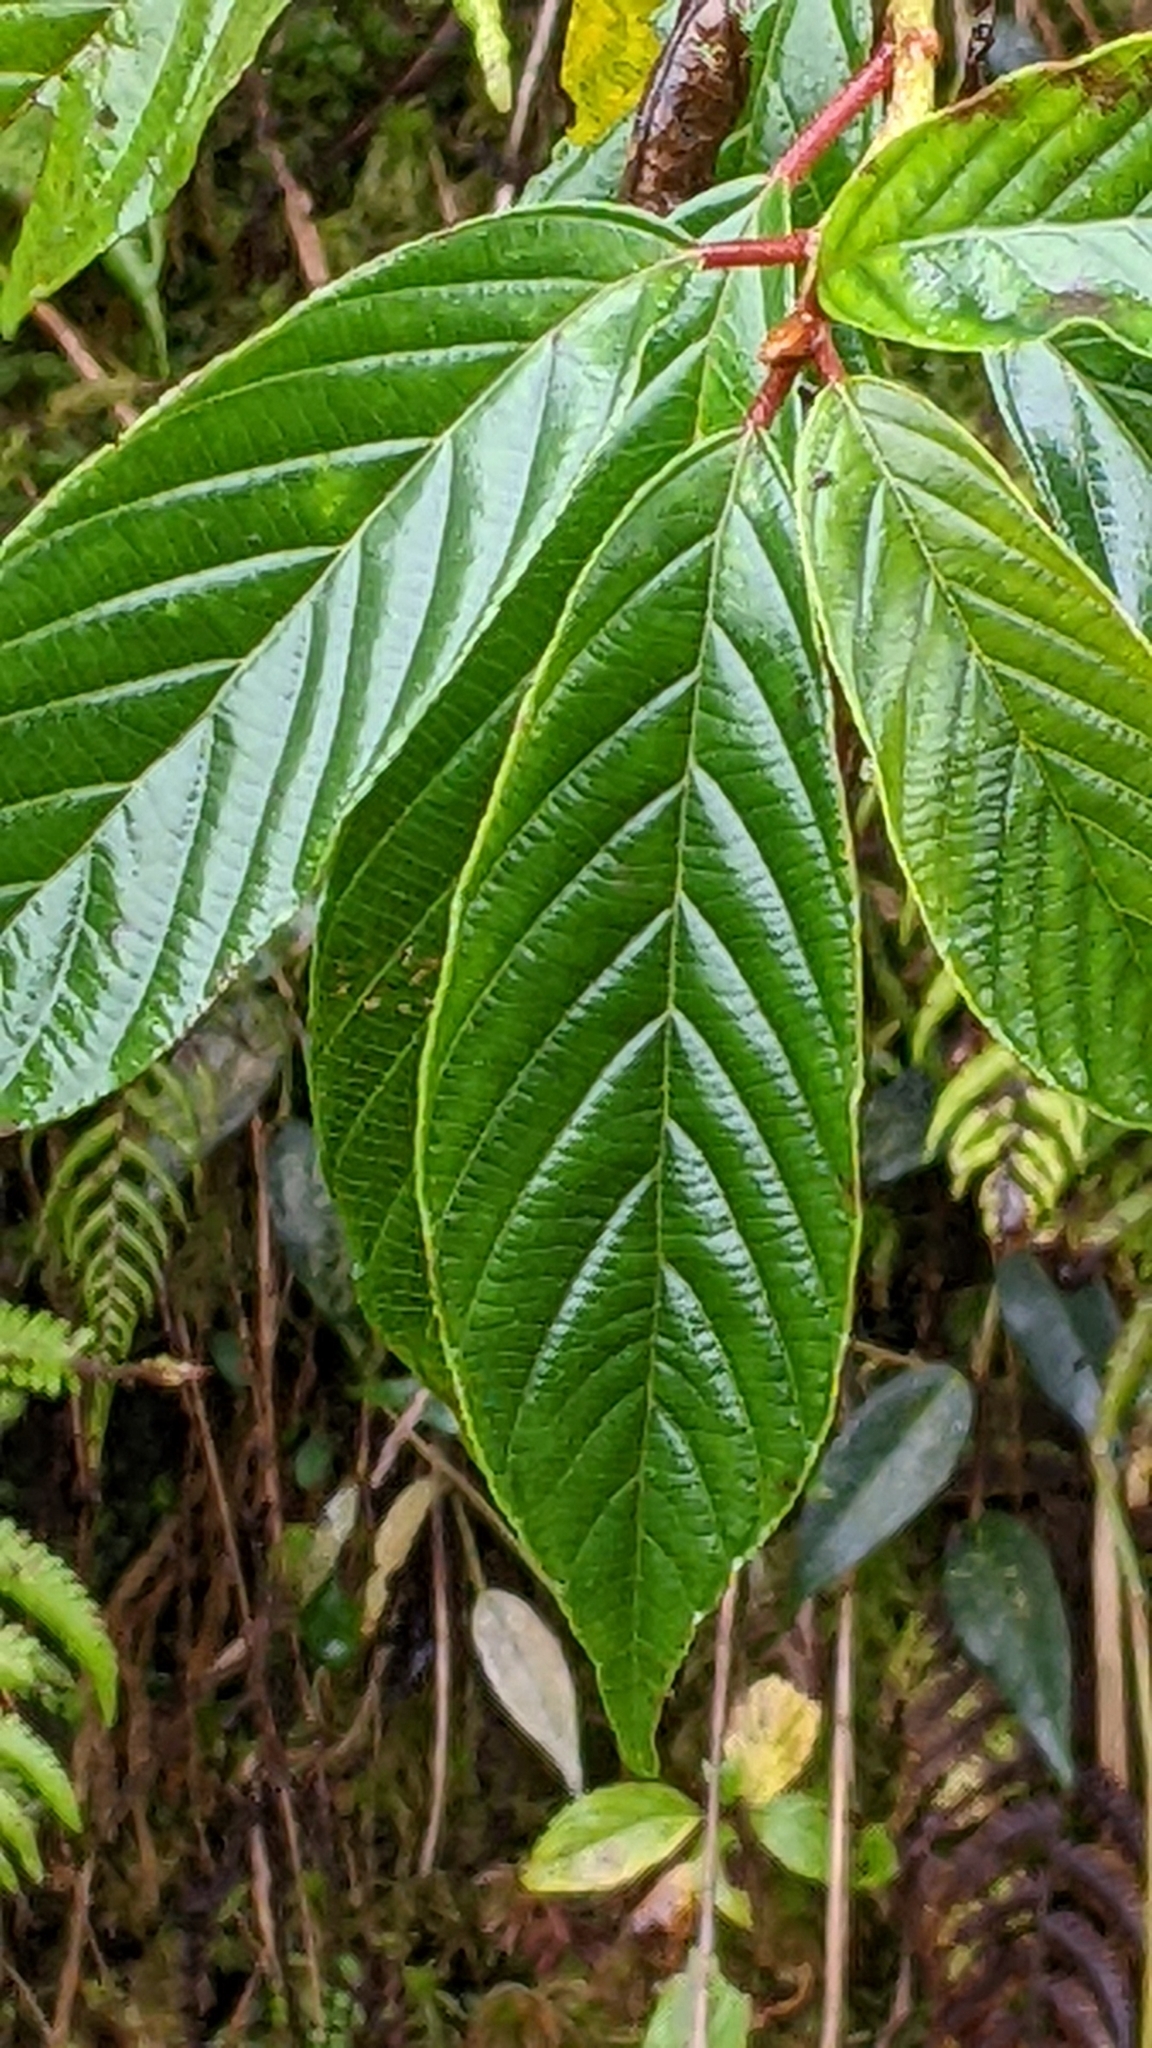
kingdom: Plantae
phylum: Tracheophyta
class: Magnoliopsida
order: Rosales
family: Rhamnaceae
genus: Frangula
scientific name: Frangula crenata
